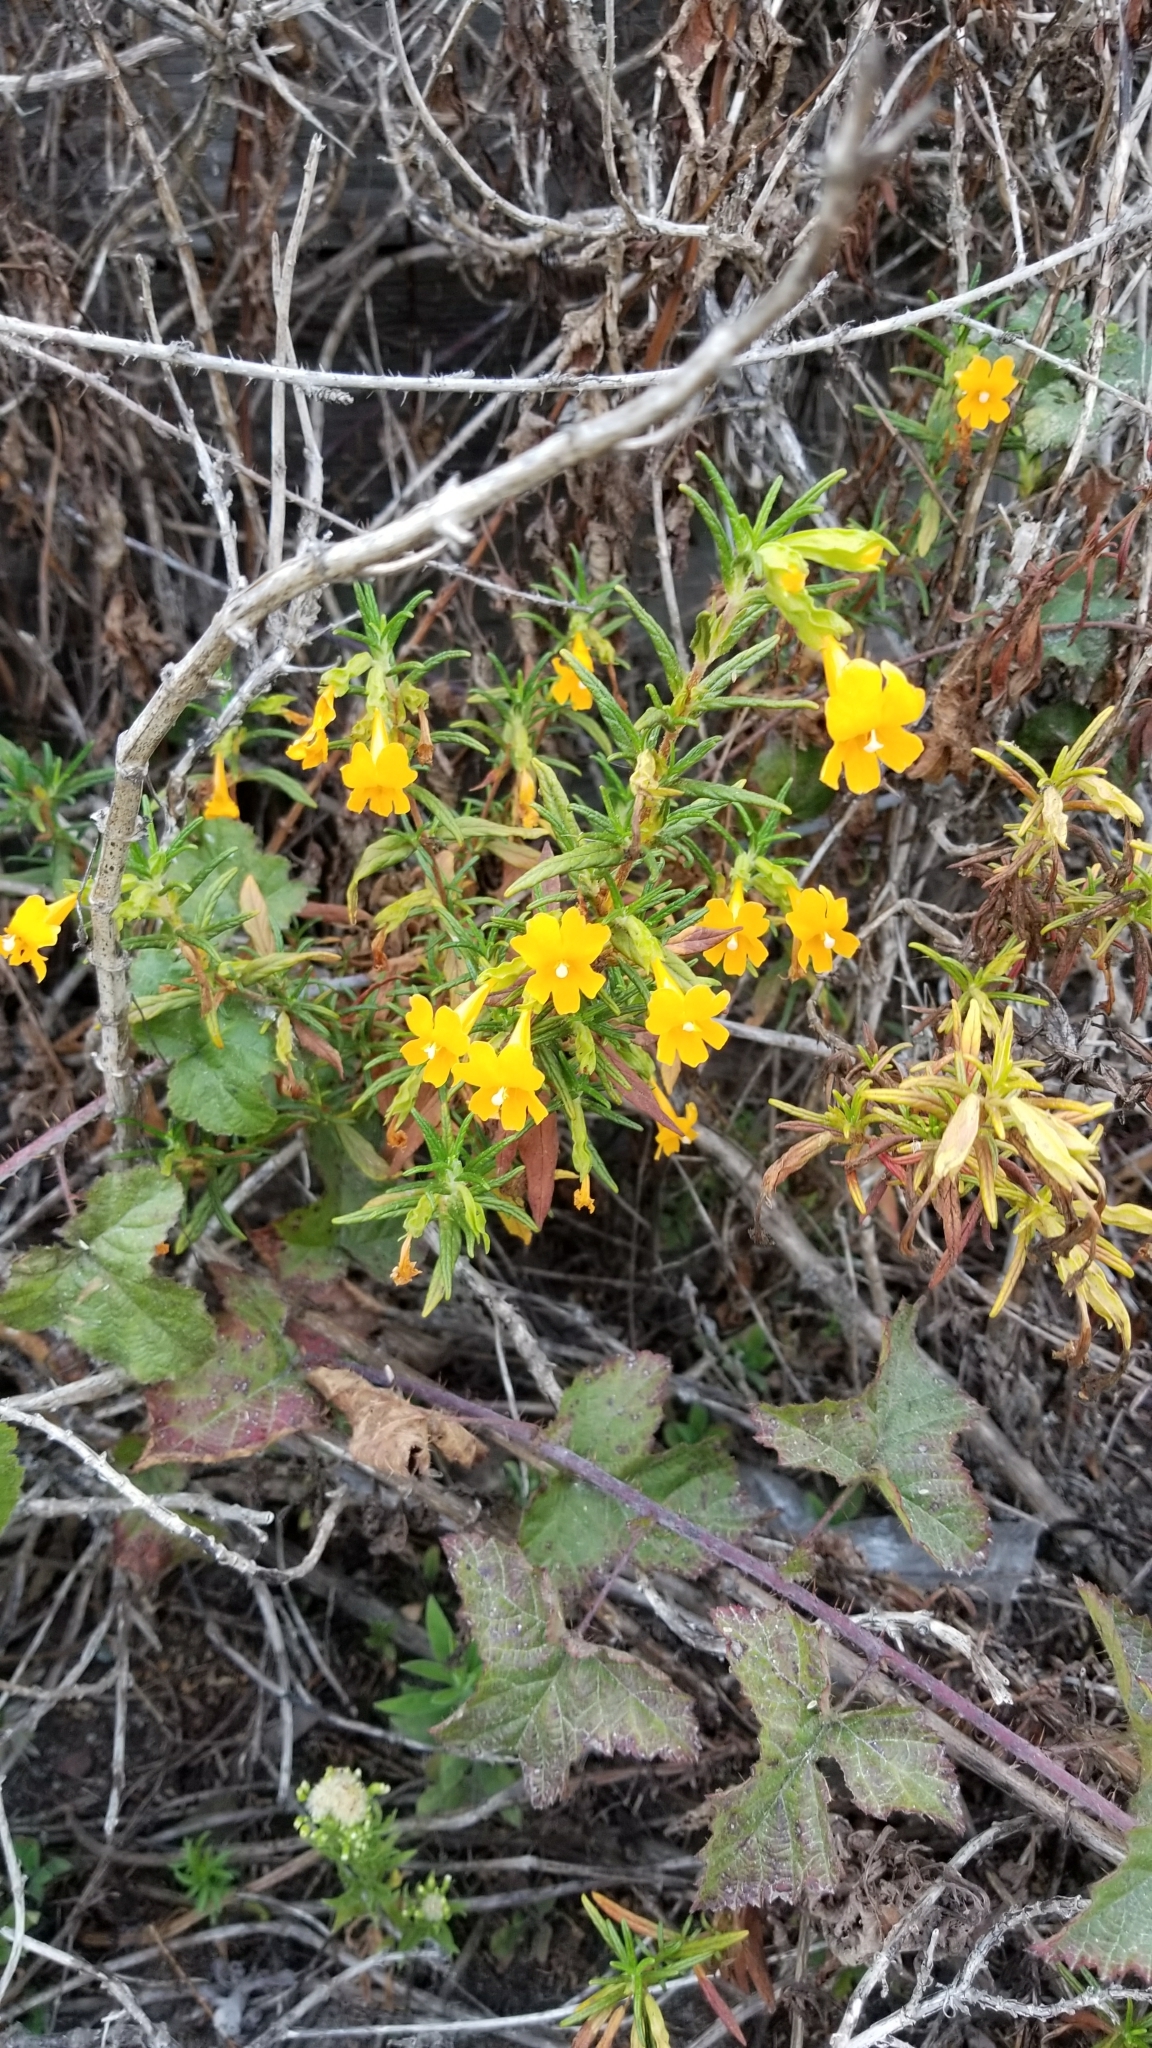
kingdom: Plantae
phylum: Tracheophyta
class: Magnoliopsida
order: Lamiales
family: Phrymaceae
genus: Diplacus
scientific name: Diplacus aurantiacus
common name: Bush monkey-flower
